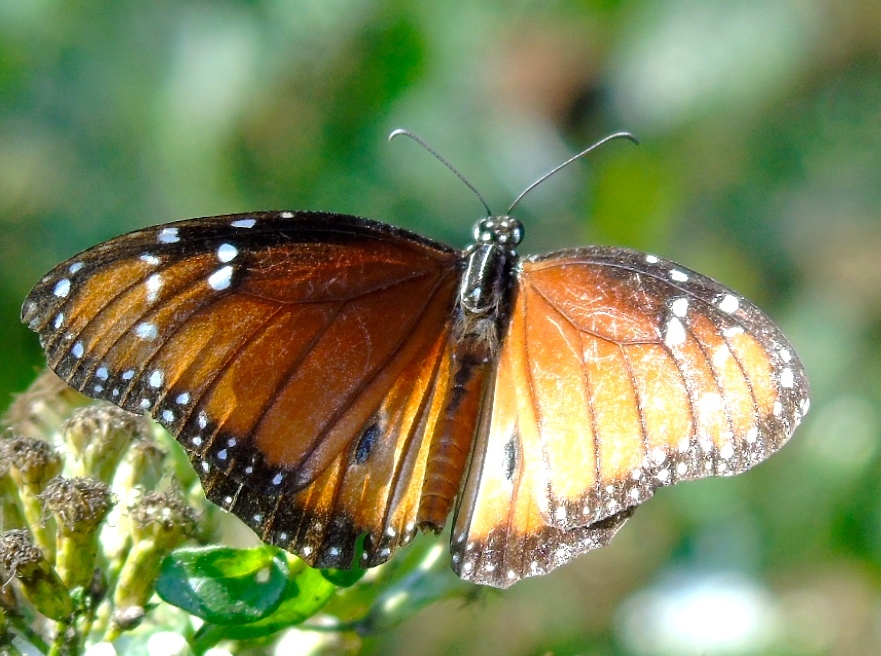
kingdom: Animalia
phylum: Arthropoda
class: Insecta
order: Lepidoptera
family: Nymphalidae
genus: Danaus
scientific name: Danaus eresimus
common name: Soldier
